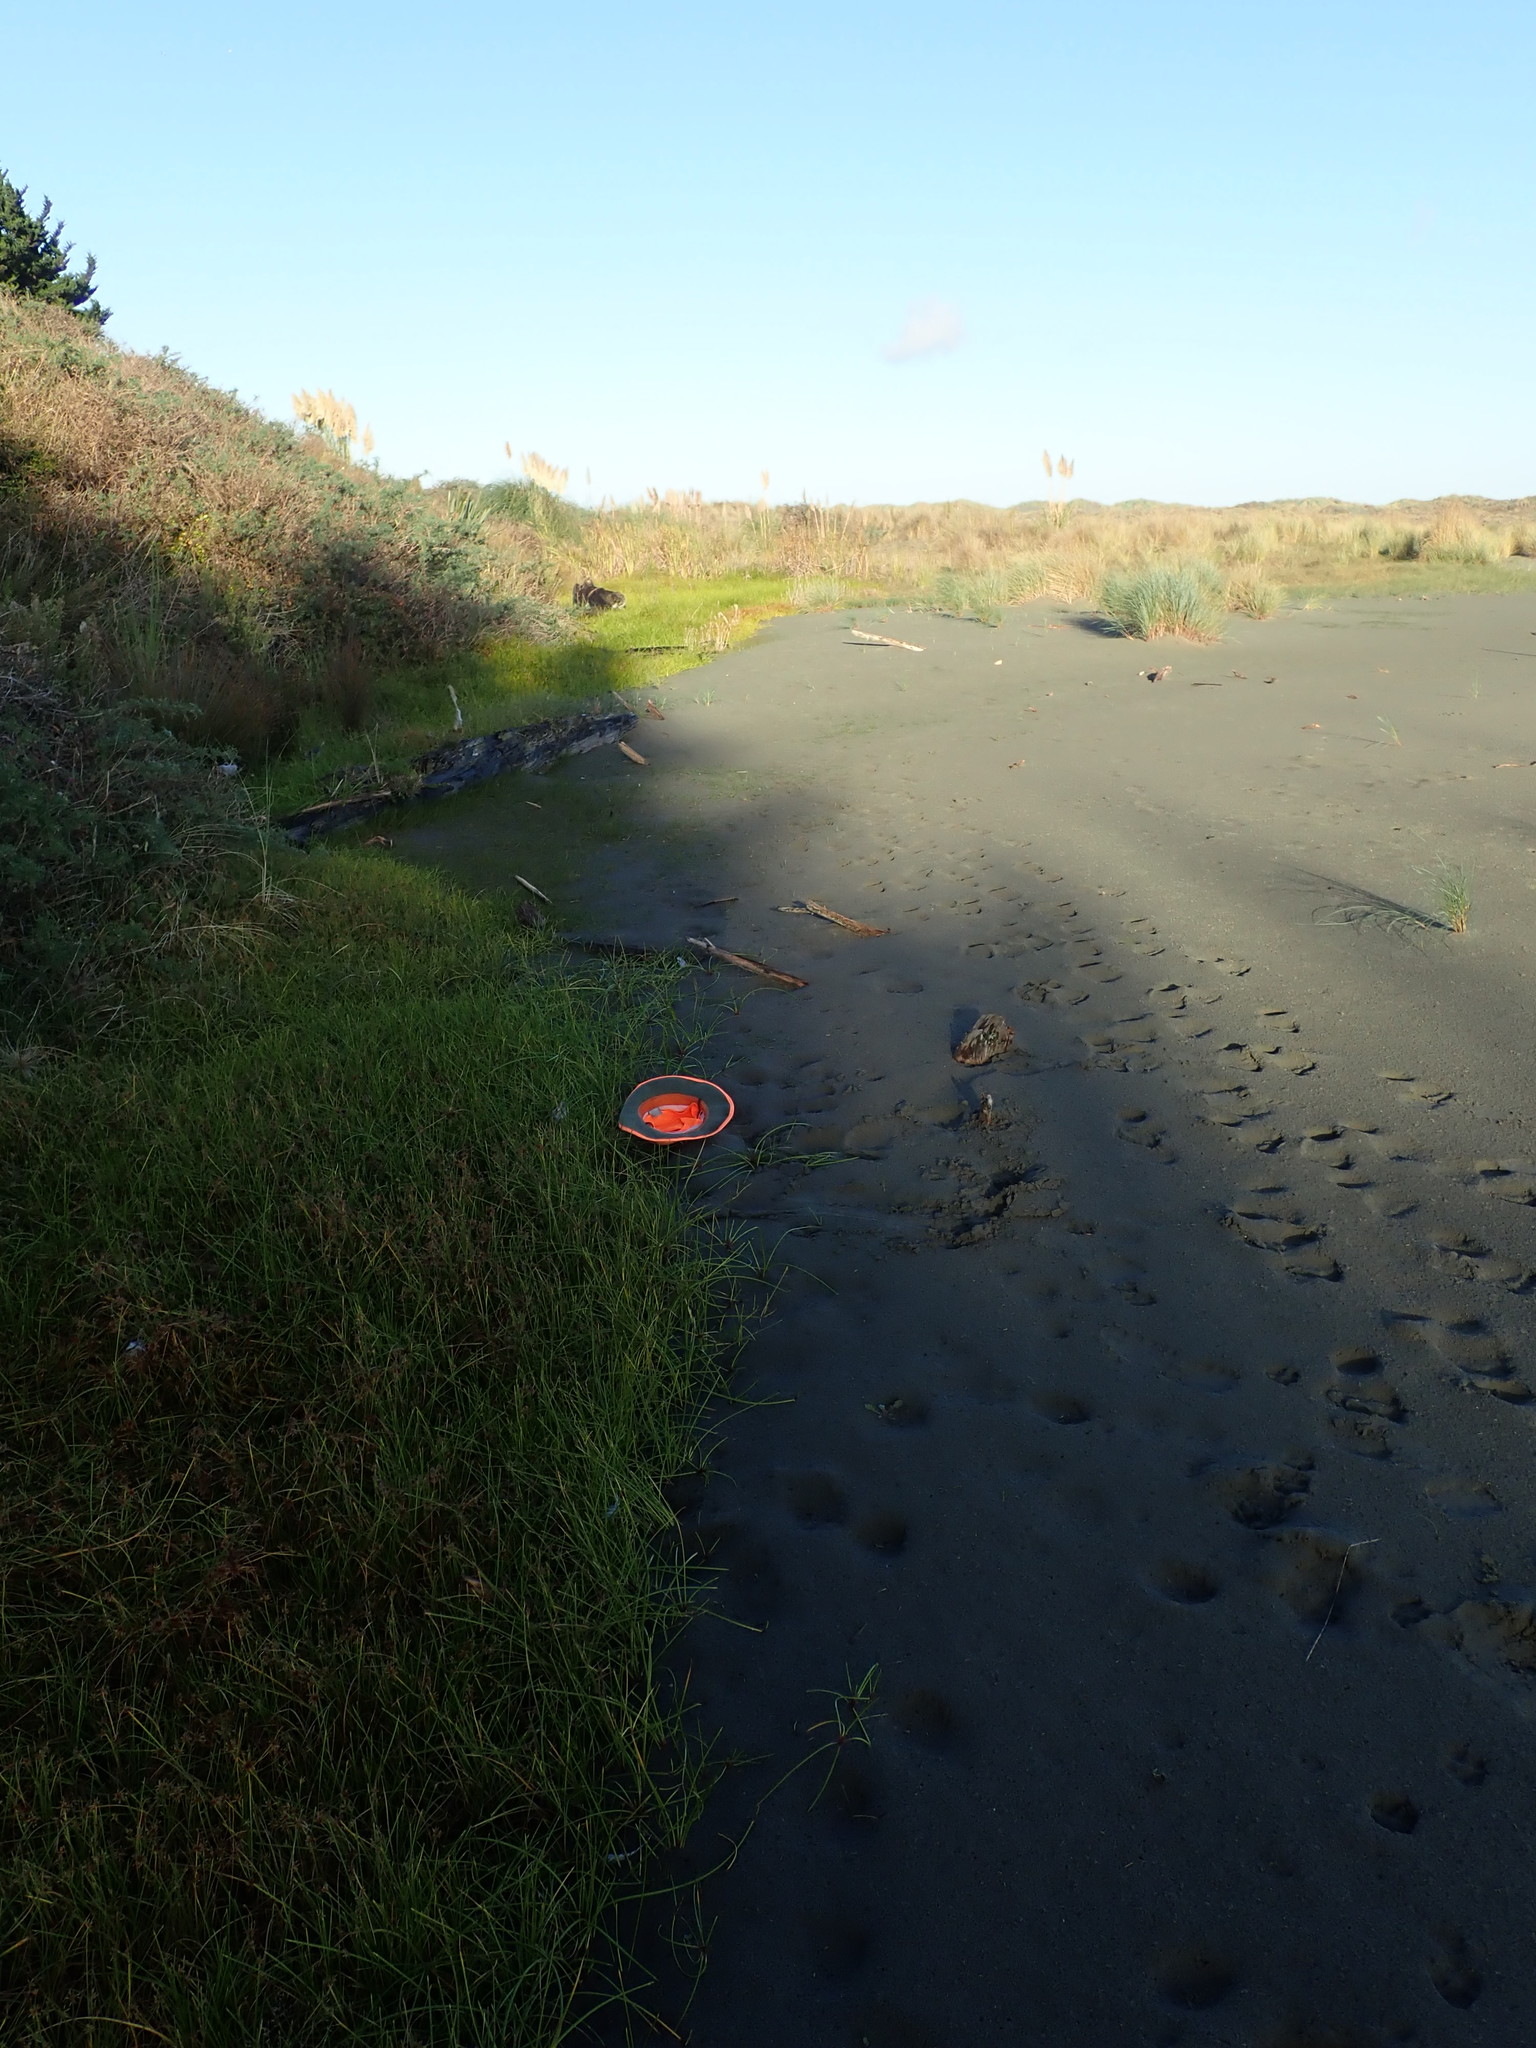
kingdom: Plantae
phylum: Tracheophyta
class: Magnoliopsida
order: Apiales
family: Apiaceae
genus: Lilaeopsis
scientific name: Lilaeopsis novae-zelandiae
